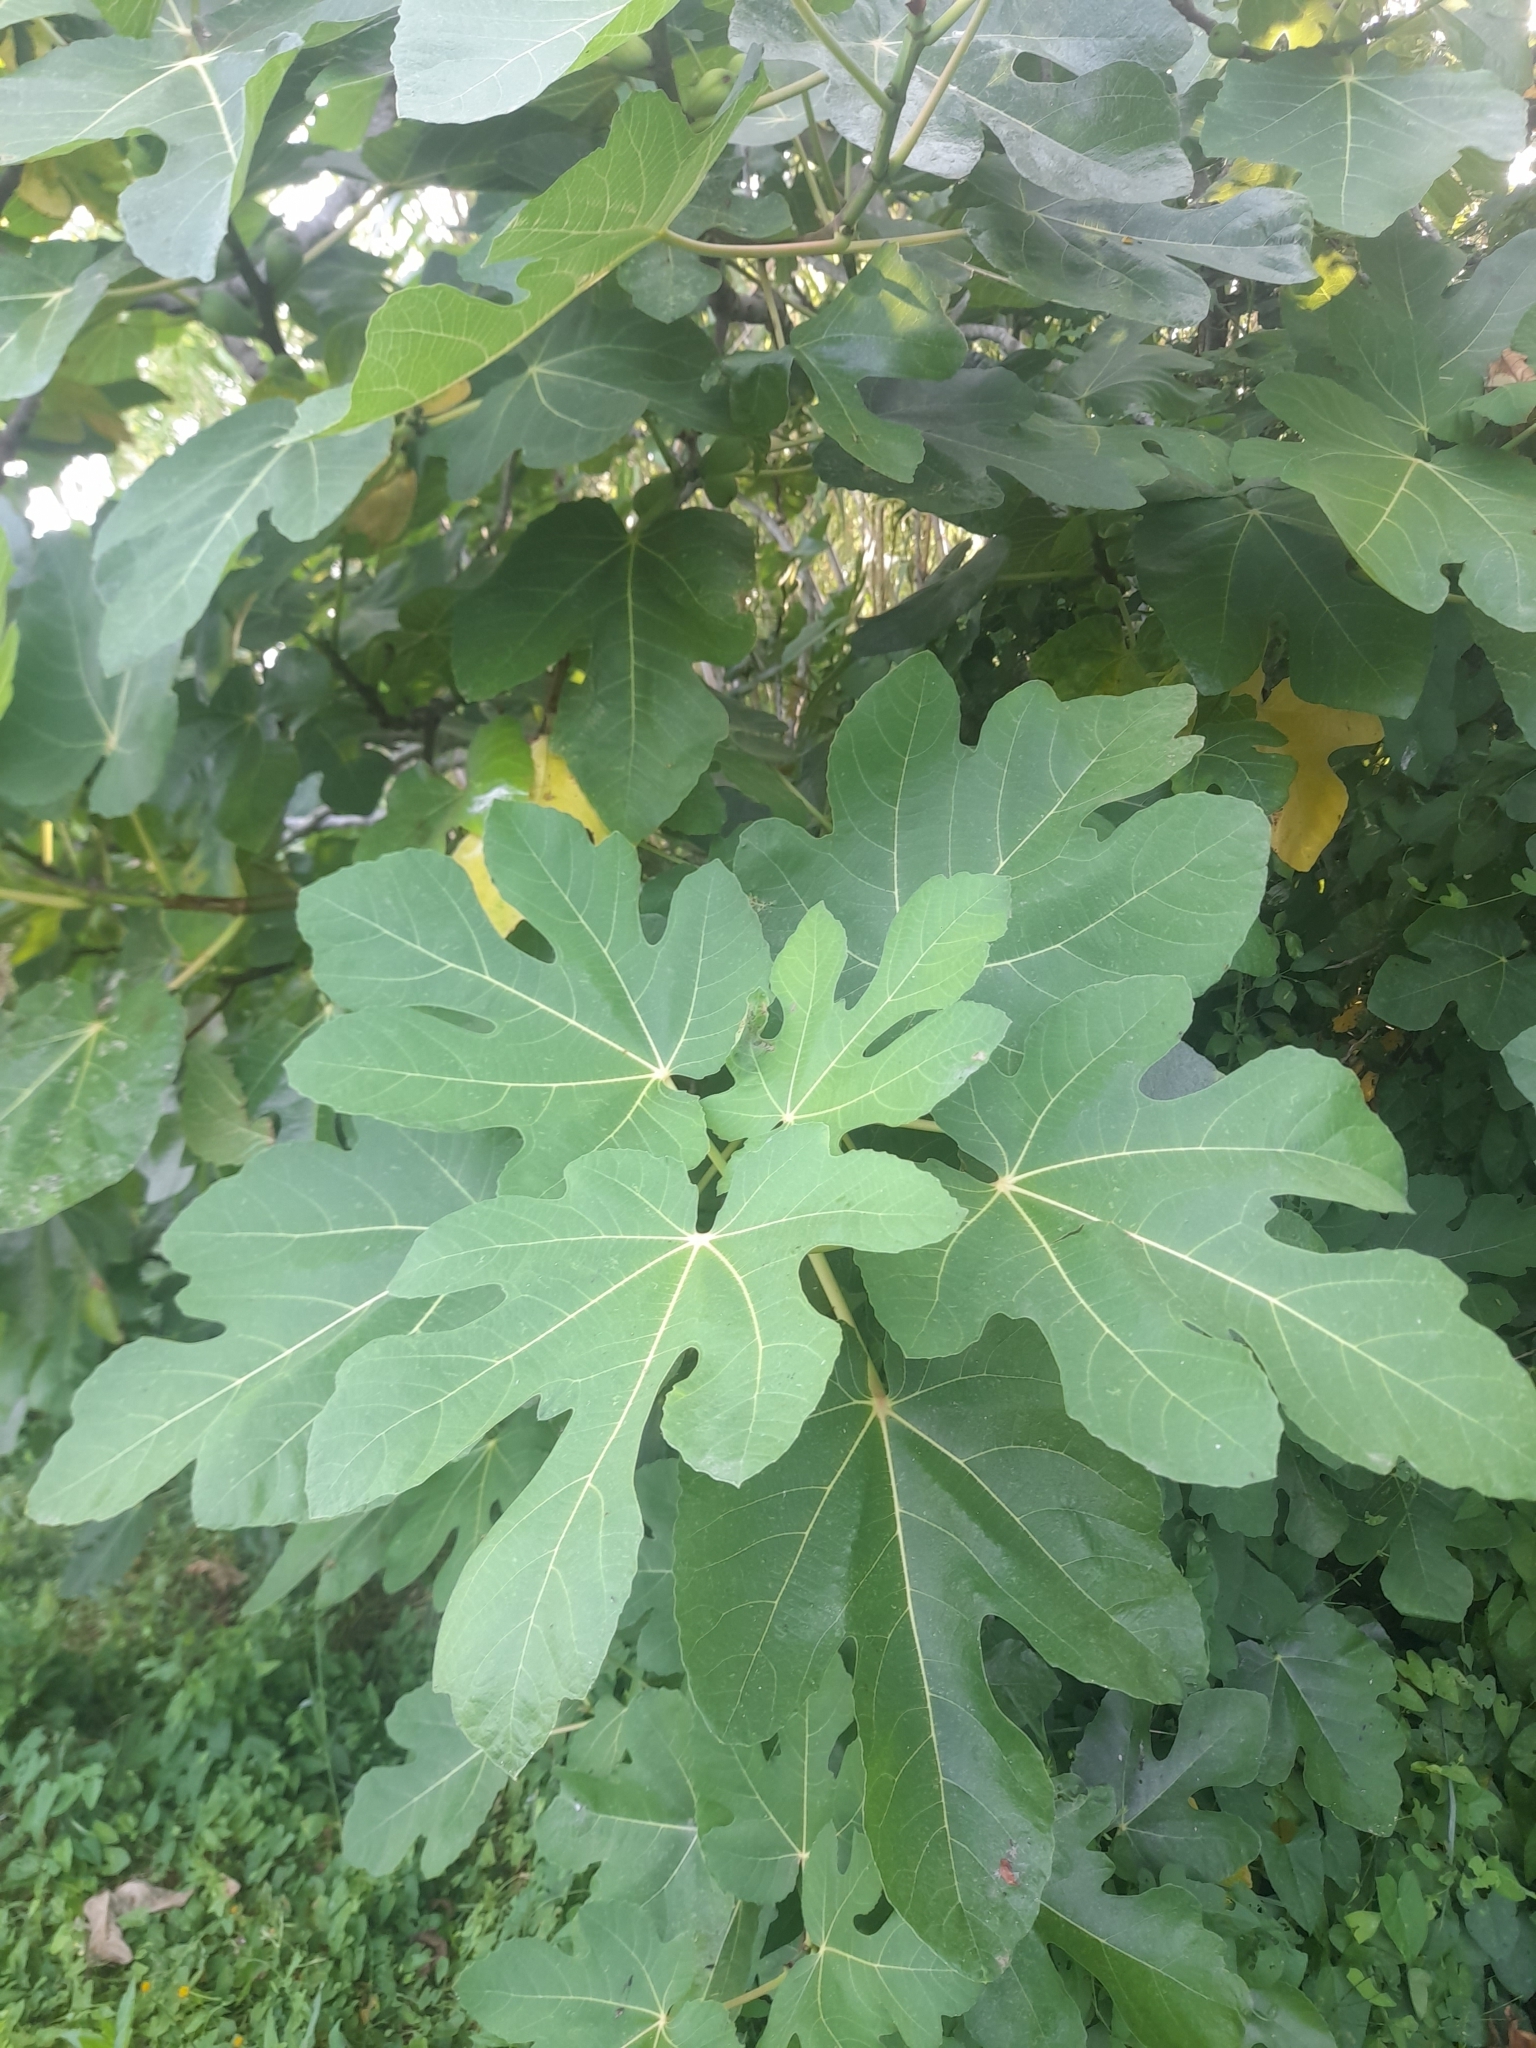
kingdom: Plantae
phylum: Tracheophyta
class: Magnoliopsida
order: Rosales
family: Moraceae
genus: Ficus
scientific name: Ficus carica
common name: Fig
